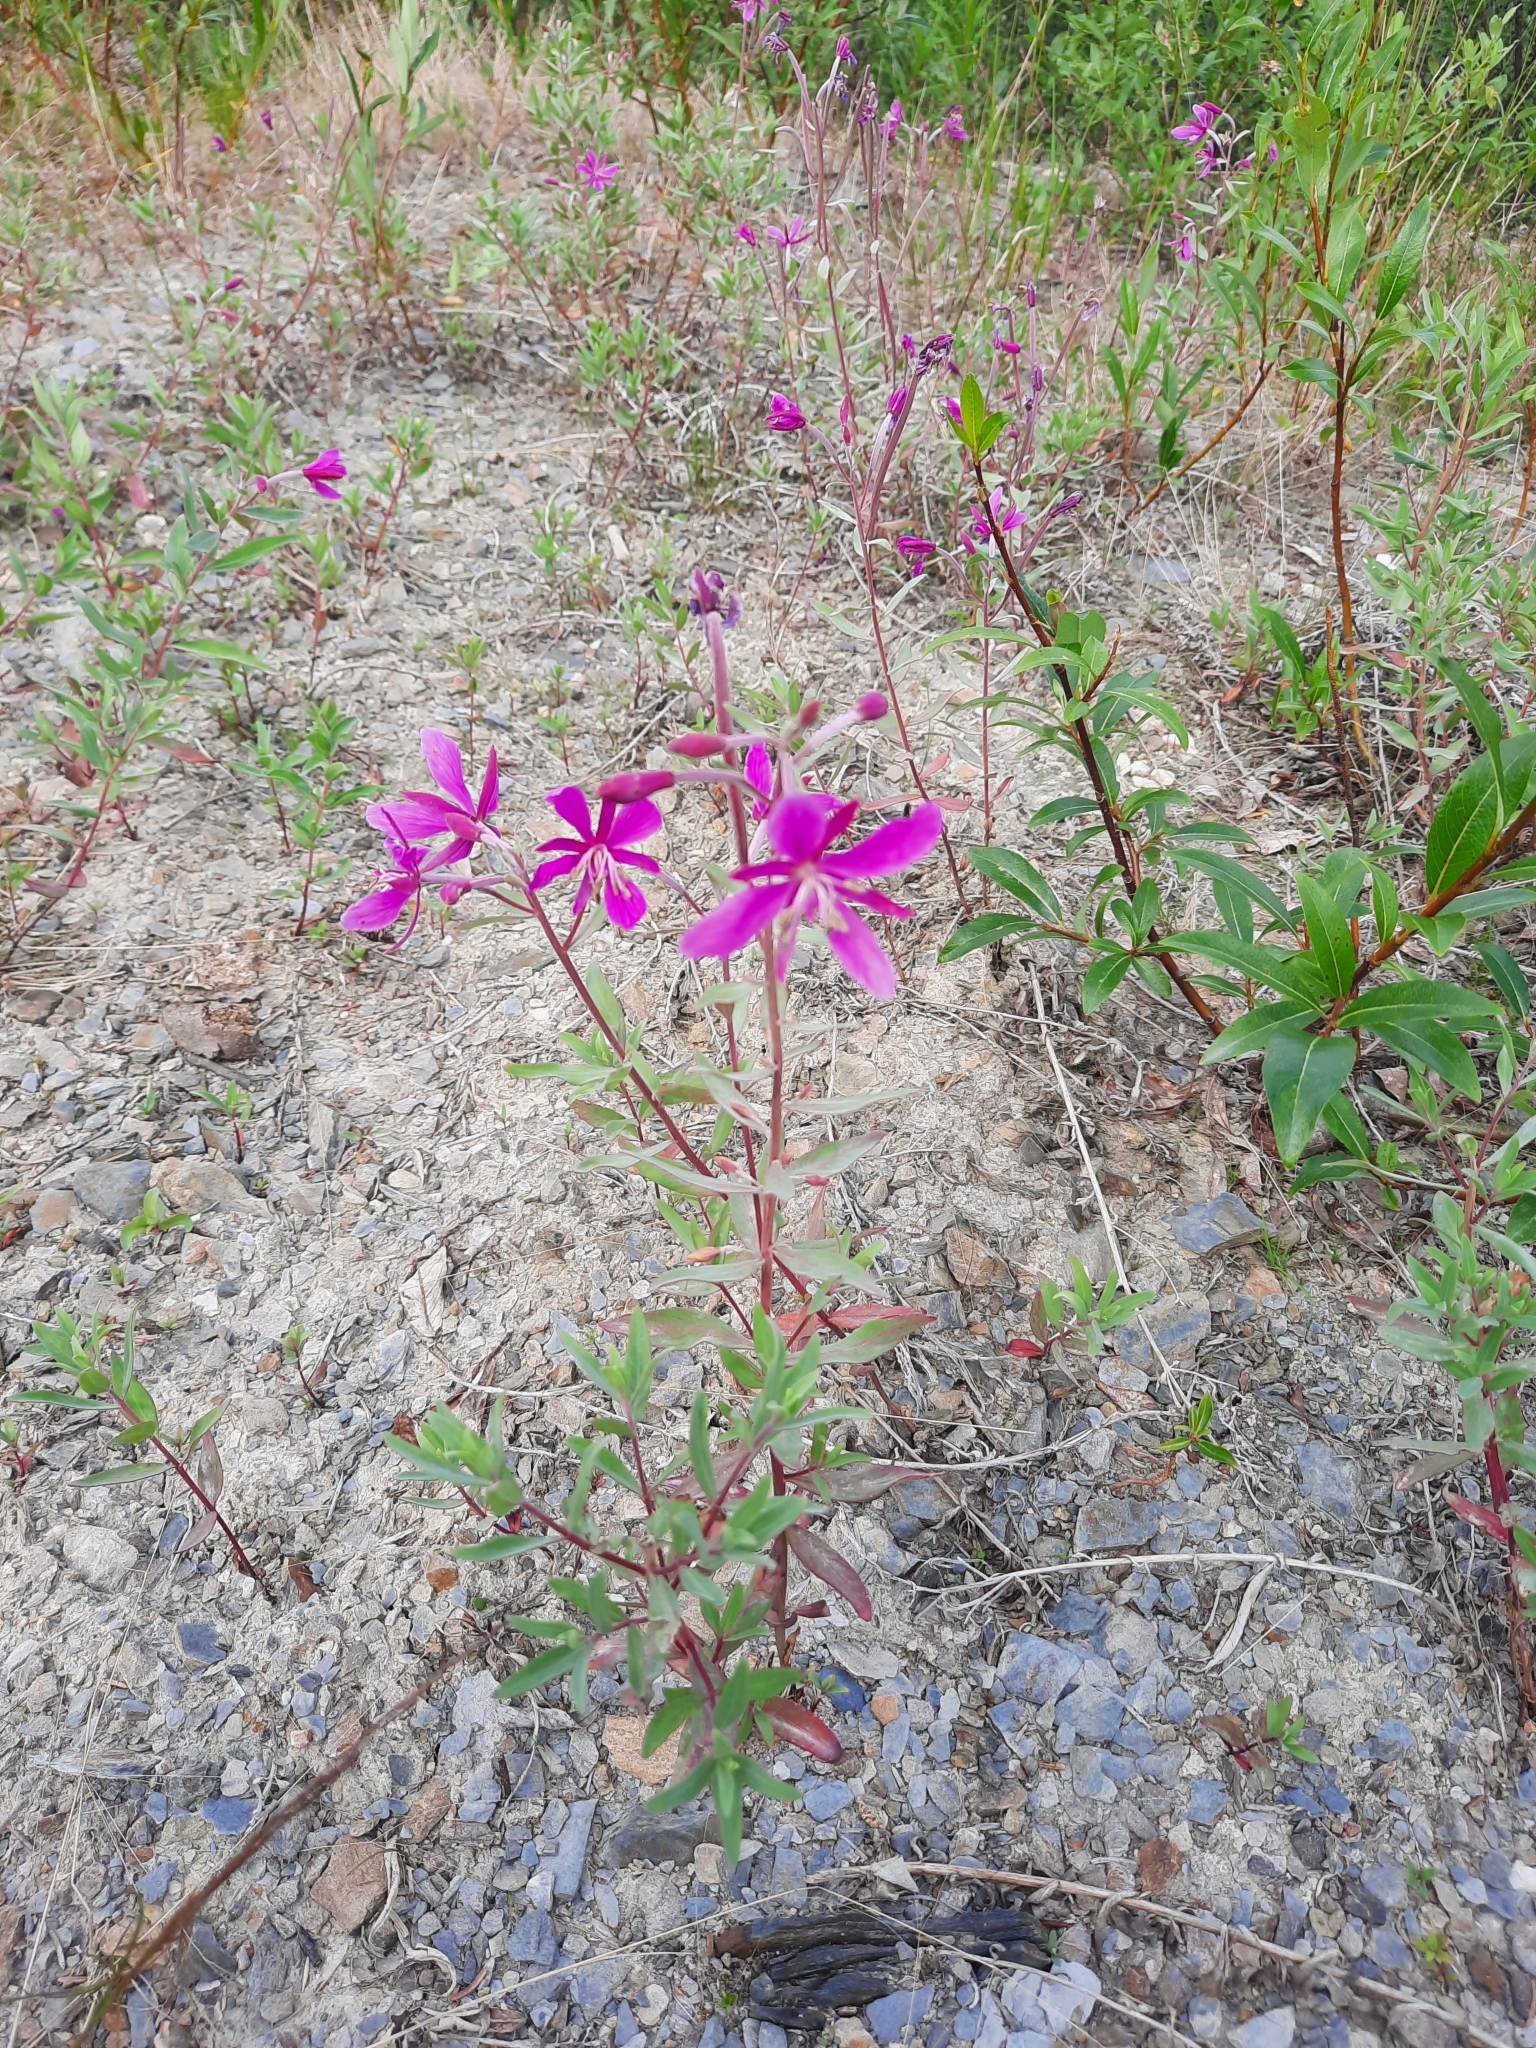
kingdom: Plantae
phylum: Tracheophyta
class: Magnoliopsida
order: Myrtales
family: Onagraceae
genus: Chamaenerion
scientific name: Chamaenerion latifolium
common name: Dwarf fireweed
